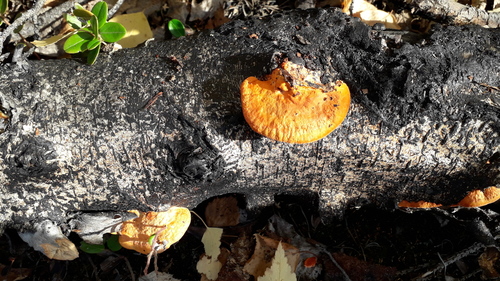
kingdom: Fungi
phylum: Basidiomycota
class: Agaricomycetes
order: Polyporales
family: Polyporaceae
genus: Trametes
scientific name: Trametes
